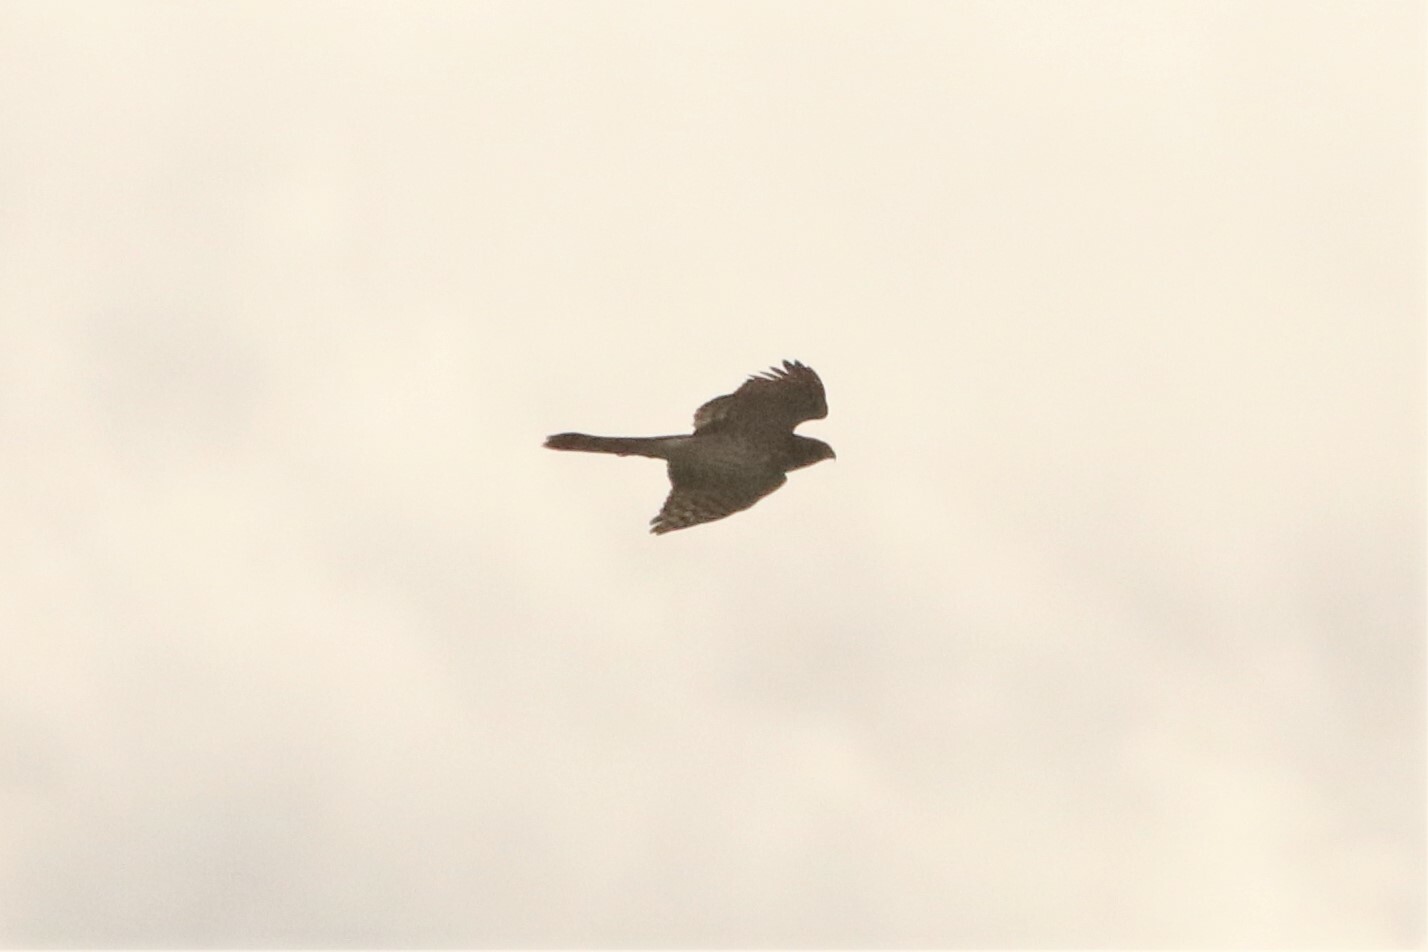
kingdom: Animalia
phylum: Chordata
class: Aves
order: Accipitriformes
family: Accipitridae
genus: Accipiter
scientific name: Accipiter cooperii
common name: Cooper's hawk
